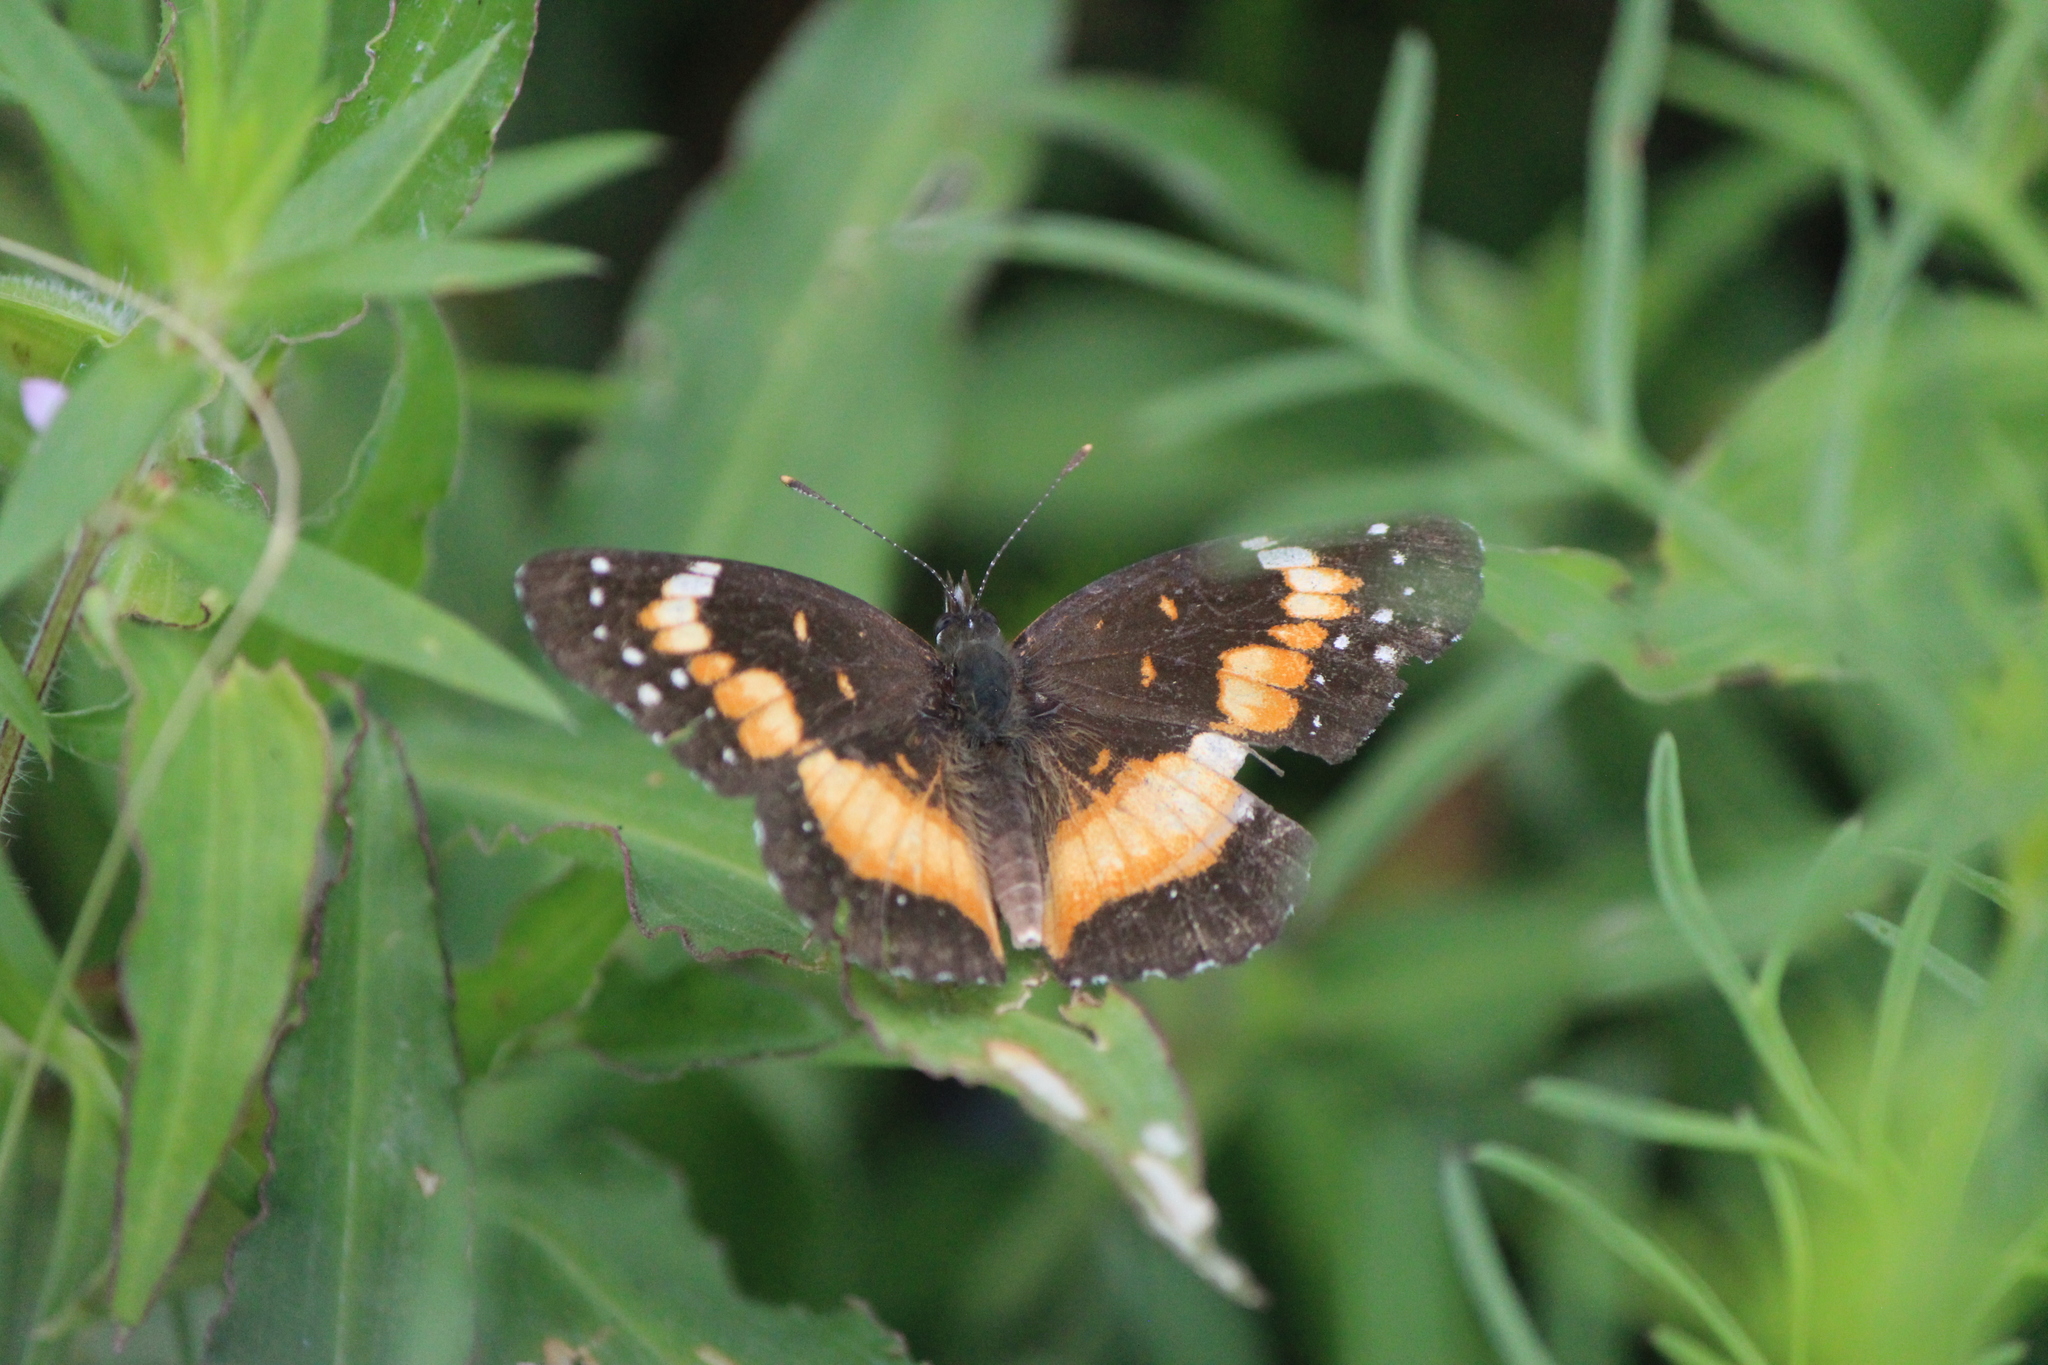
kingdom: Animalia
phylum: Arthropoda
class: Insecta
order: Lepidoptera
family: Nymphalidae
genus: Chlosyne
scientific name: Chlosyne lacinia
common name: Bordered patch
